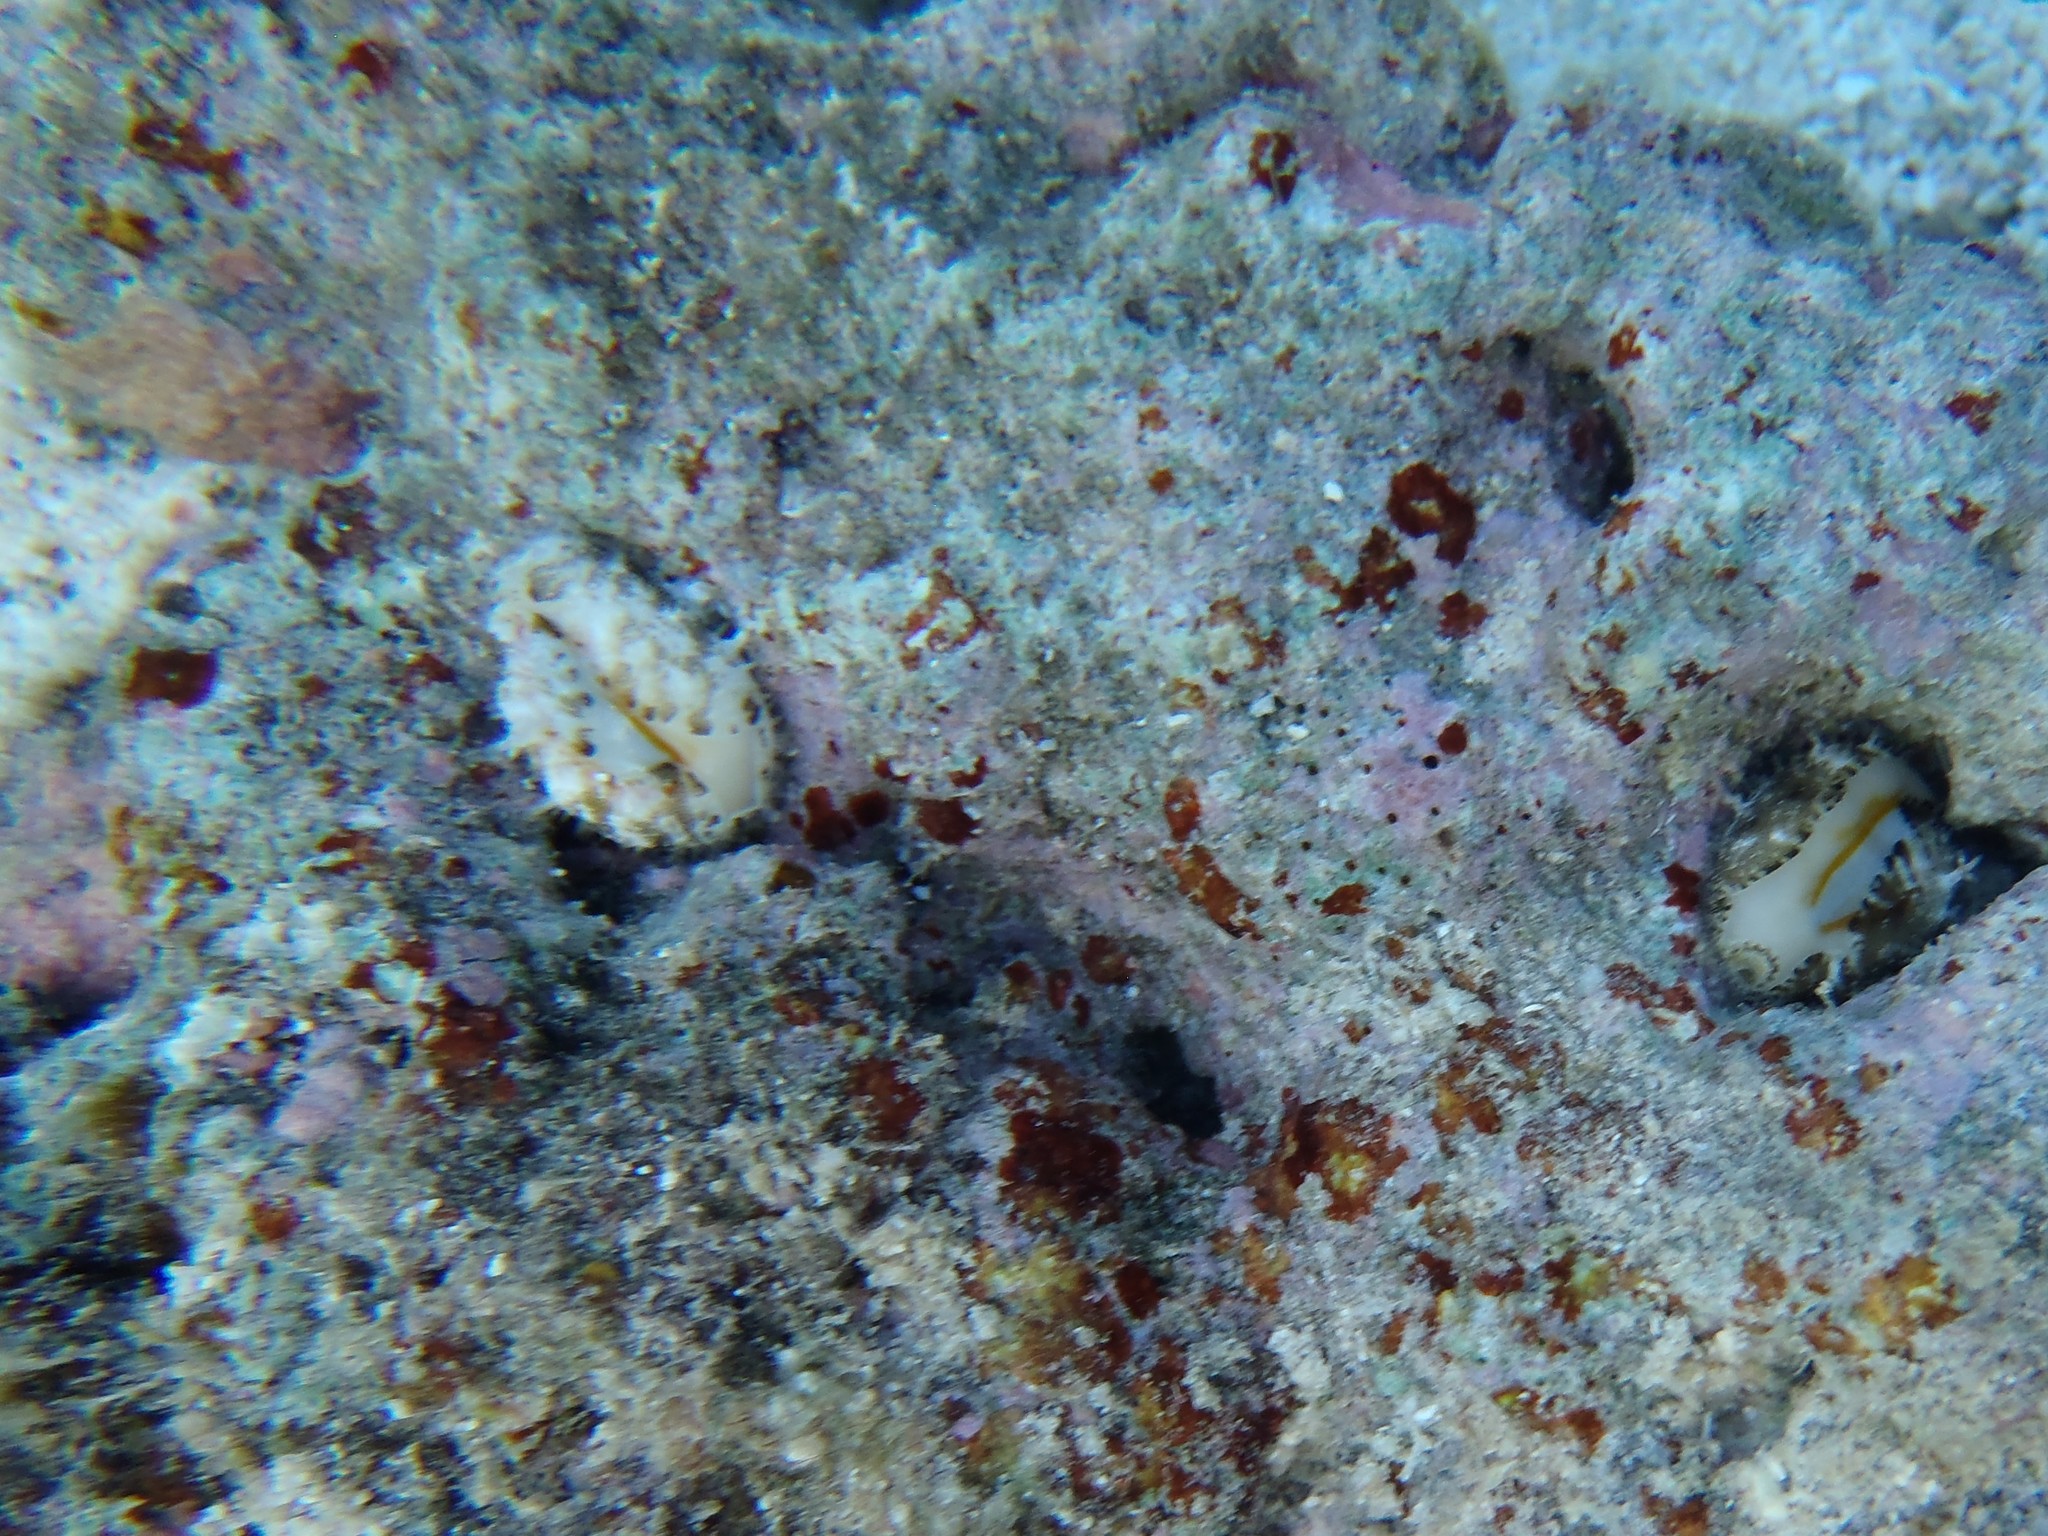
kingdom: Animalia
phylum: Mollusca
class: Gastropoda
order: Littorinimorpha
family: Cypraeidae
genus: Monetaria
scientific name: Monetaria obvelata
